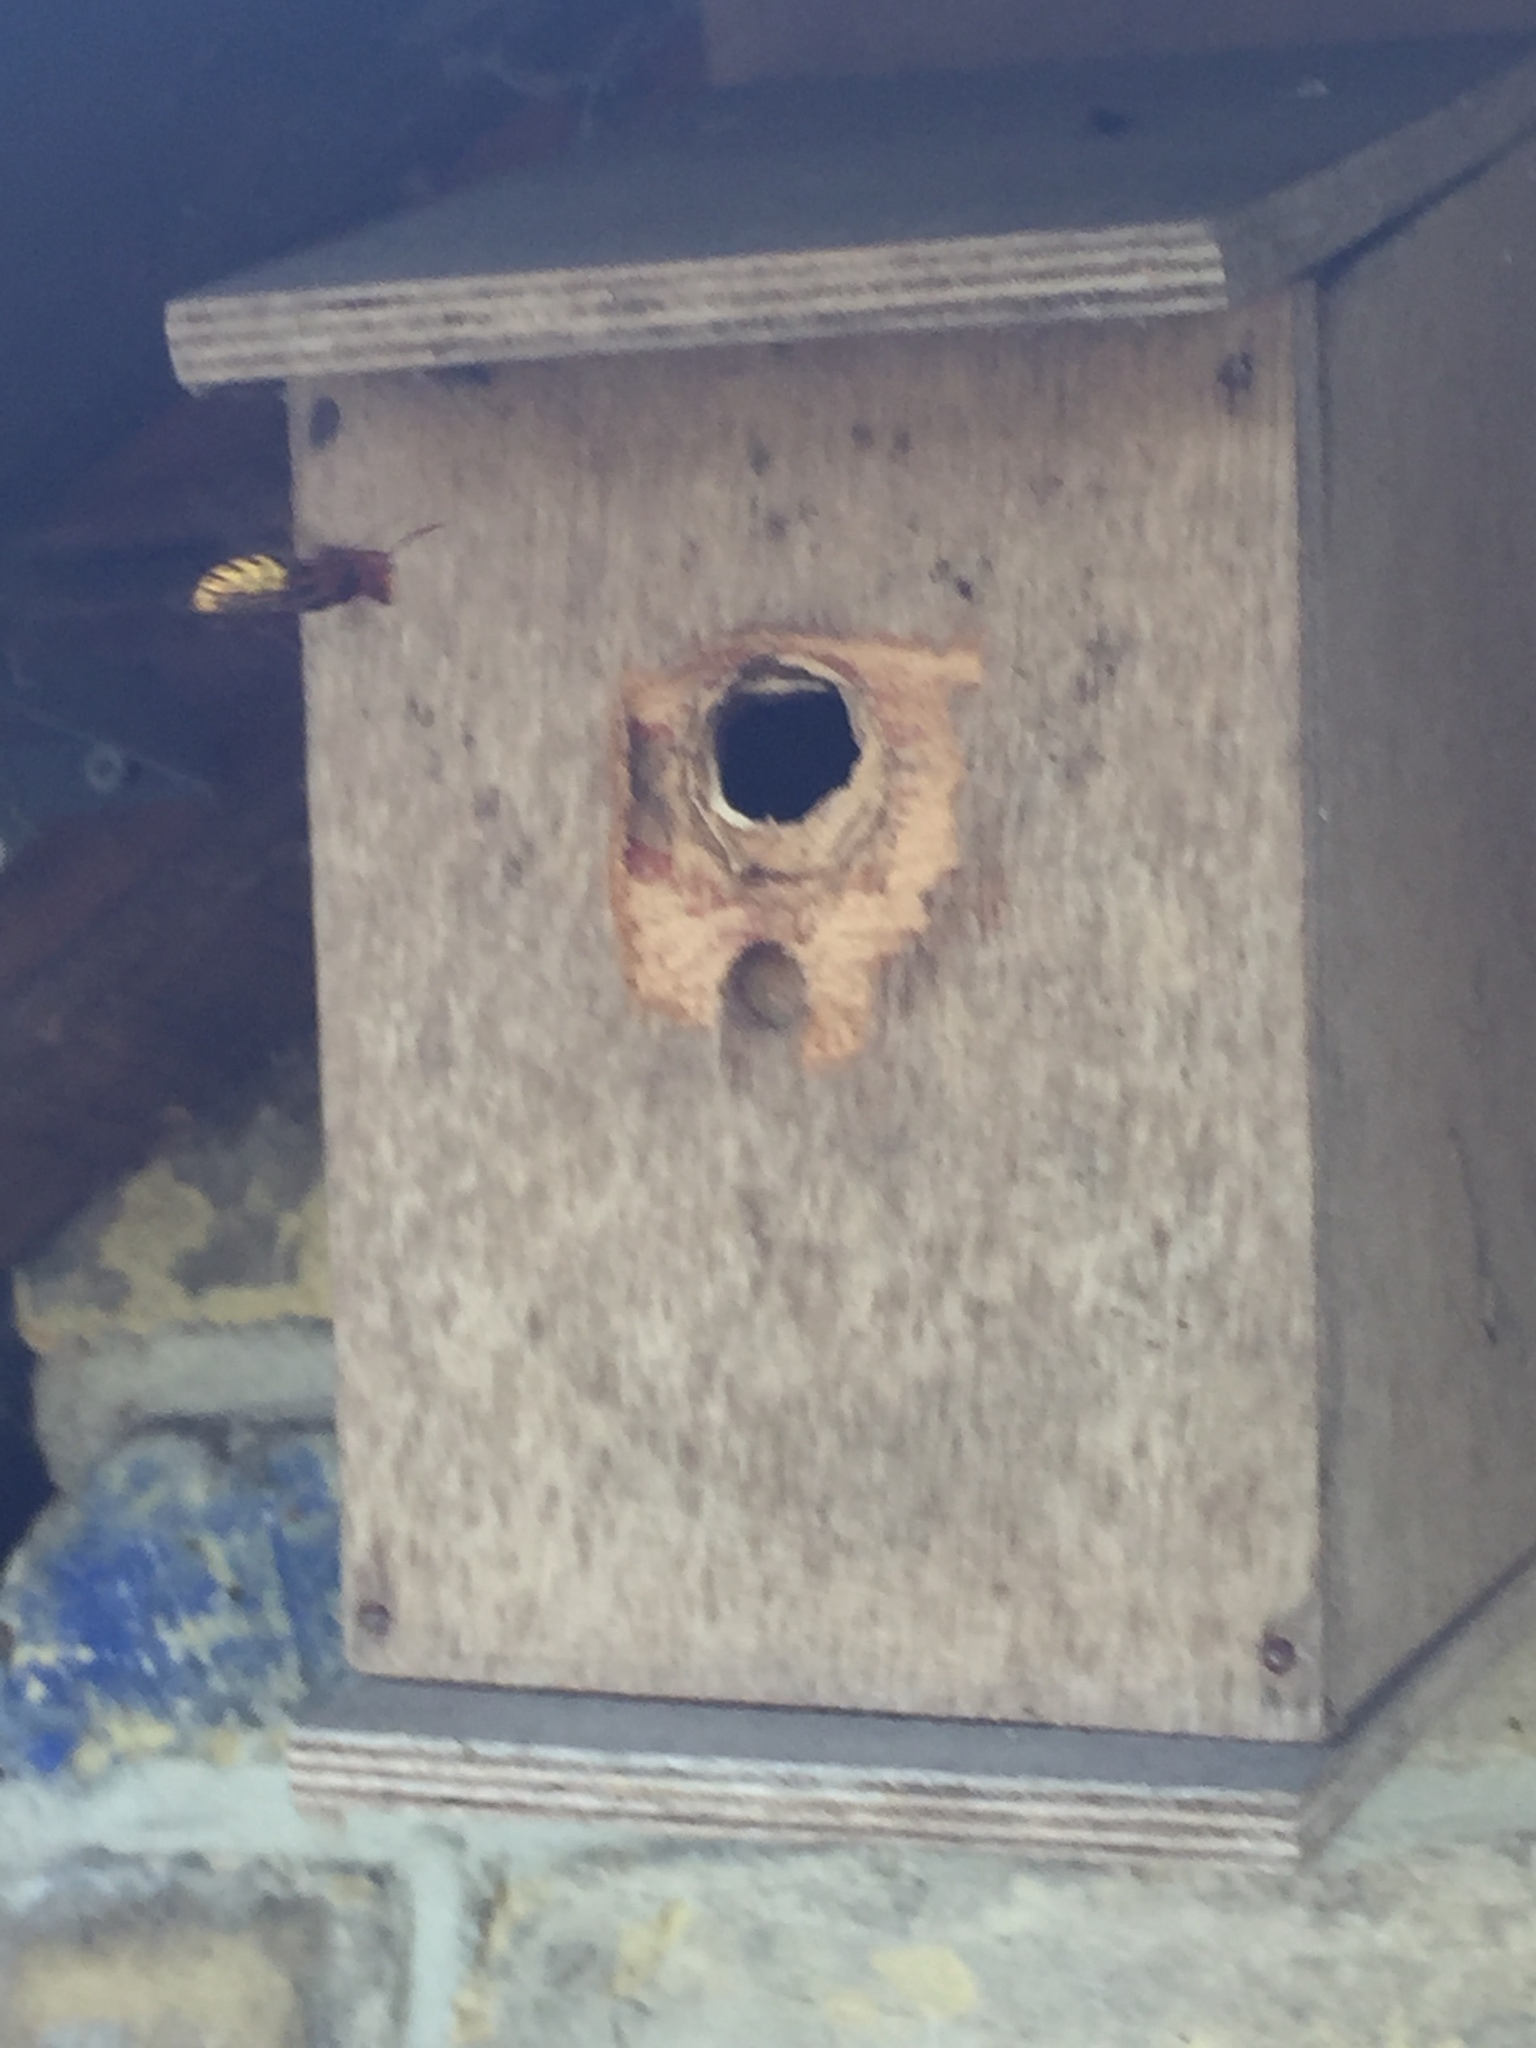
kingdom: Animalia
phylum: Arthropoda
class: Insecta
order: Hymenoptera
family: Vespidae
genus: Vespa
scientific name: Vespa crabro
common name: Hornet
